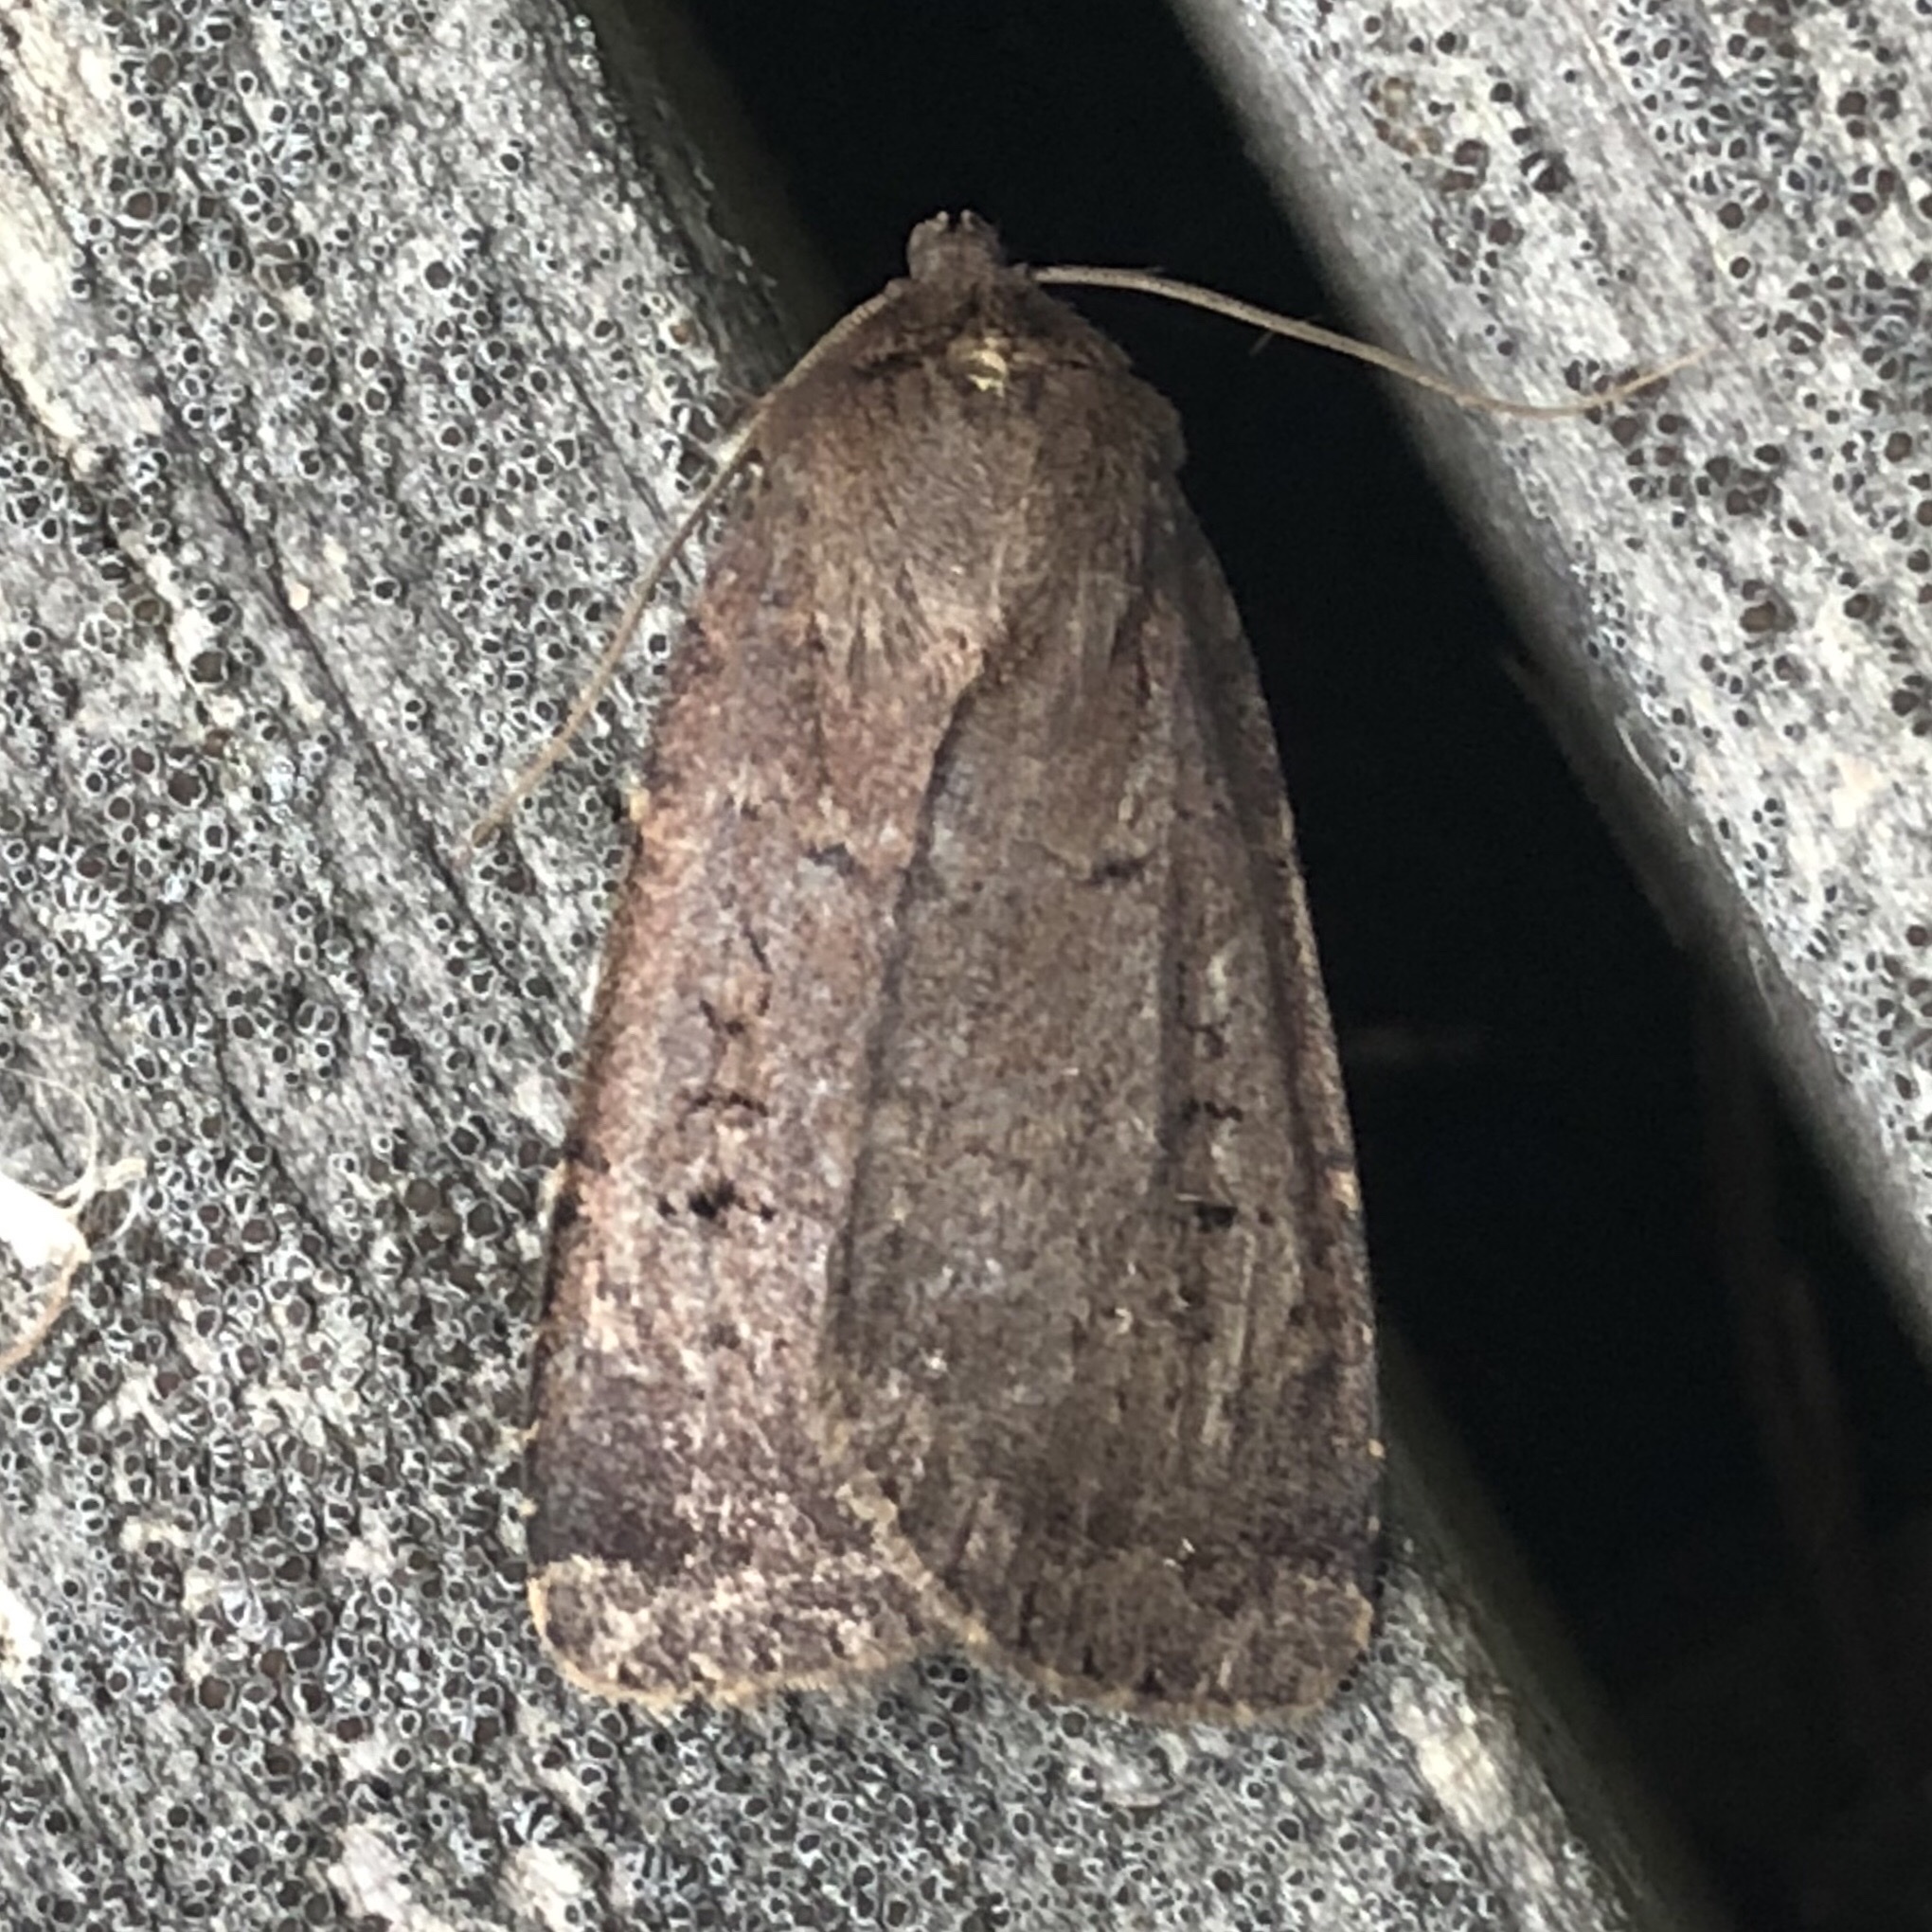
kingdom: Animalia
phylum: Arthropoda
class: Insecta
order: Lepidoptera
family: Noctuidae
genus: Spaelotis
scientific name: Spaelotis clandestina
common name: Clandestine dart
